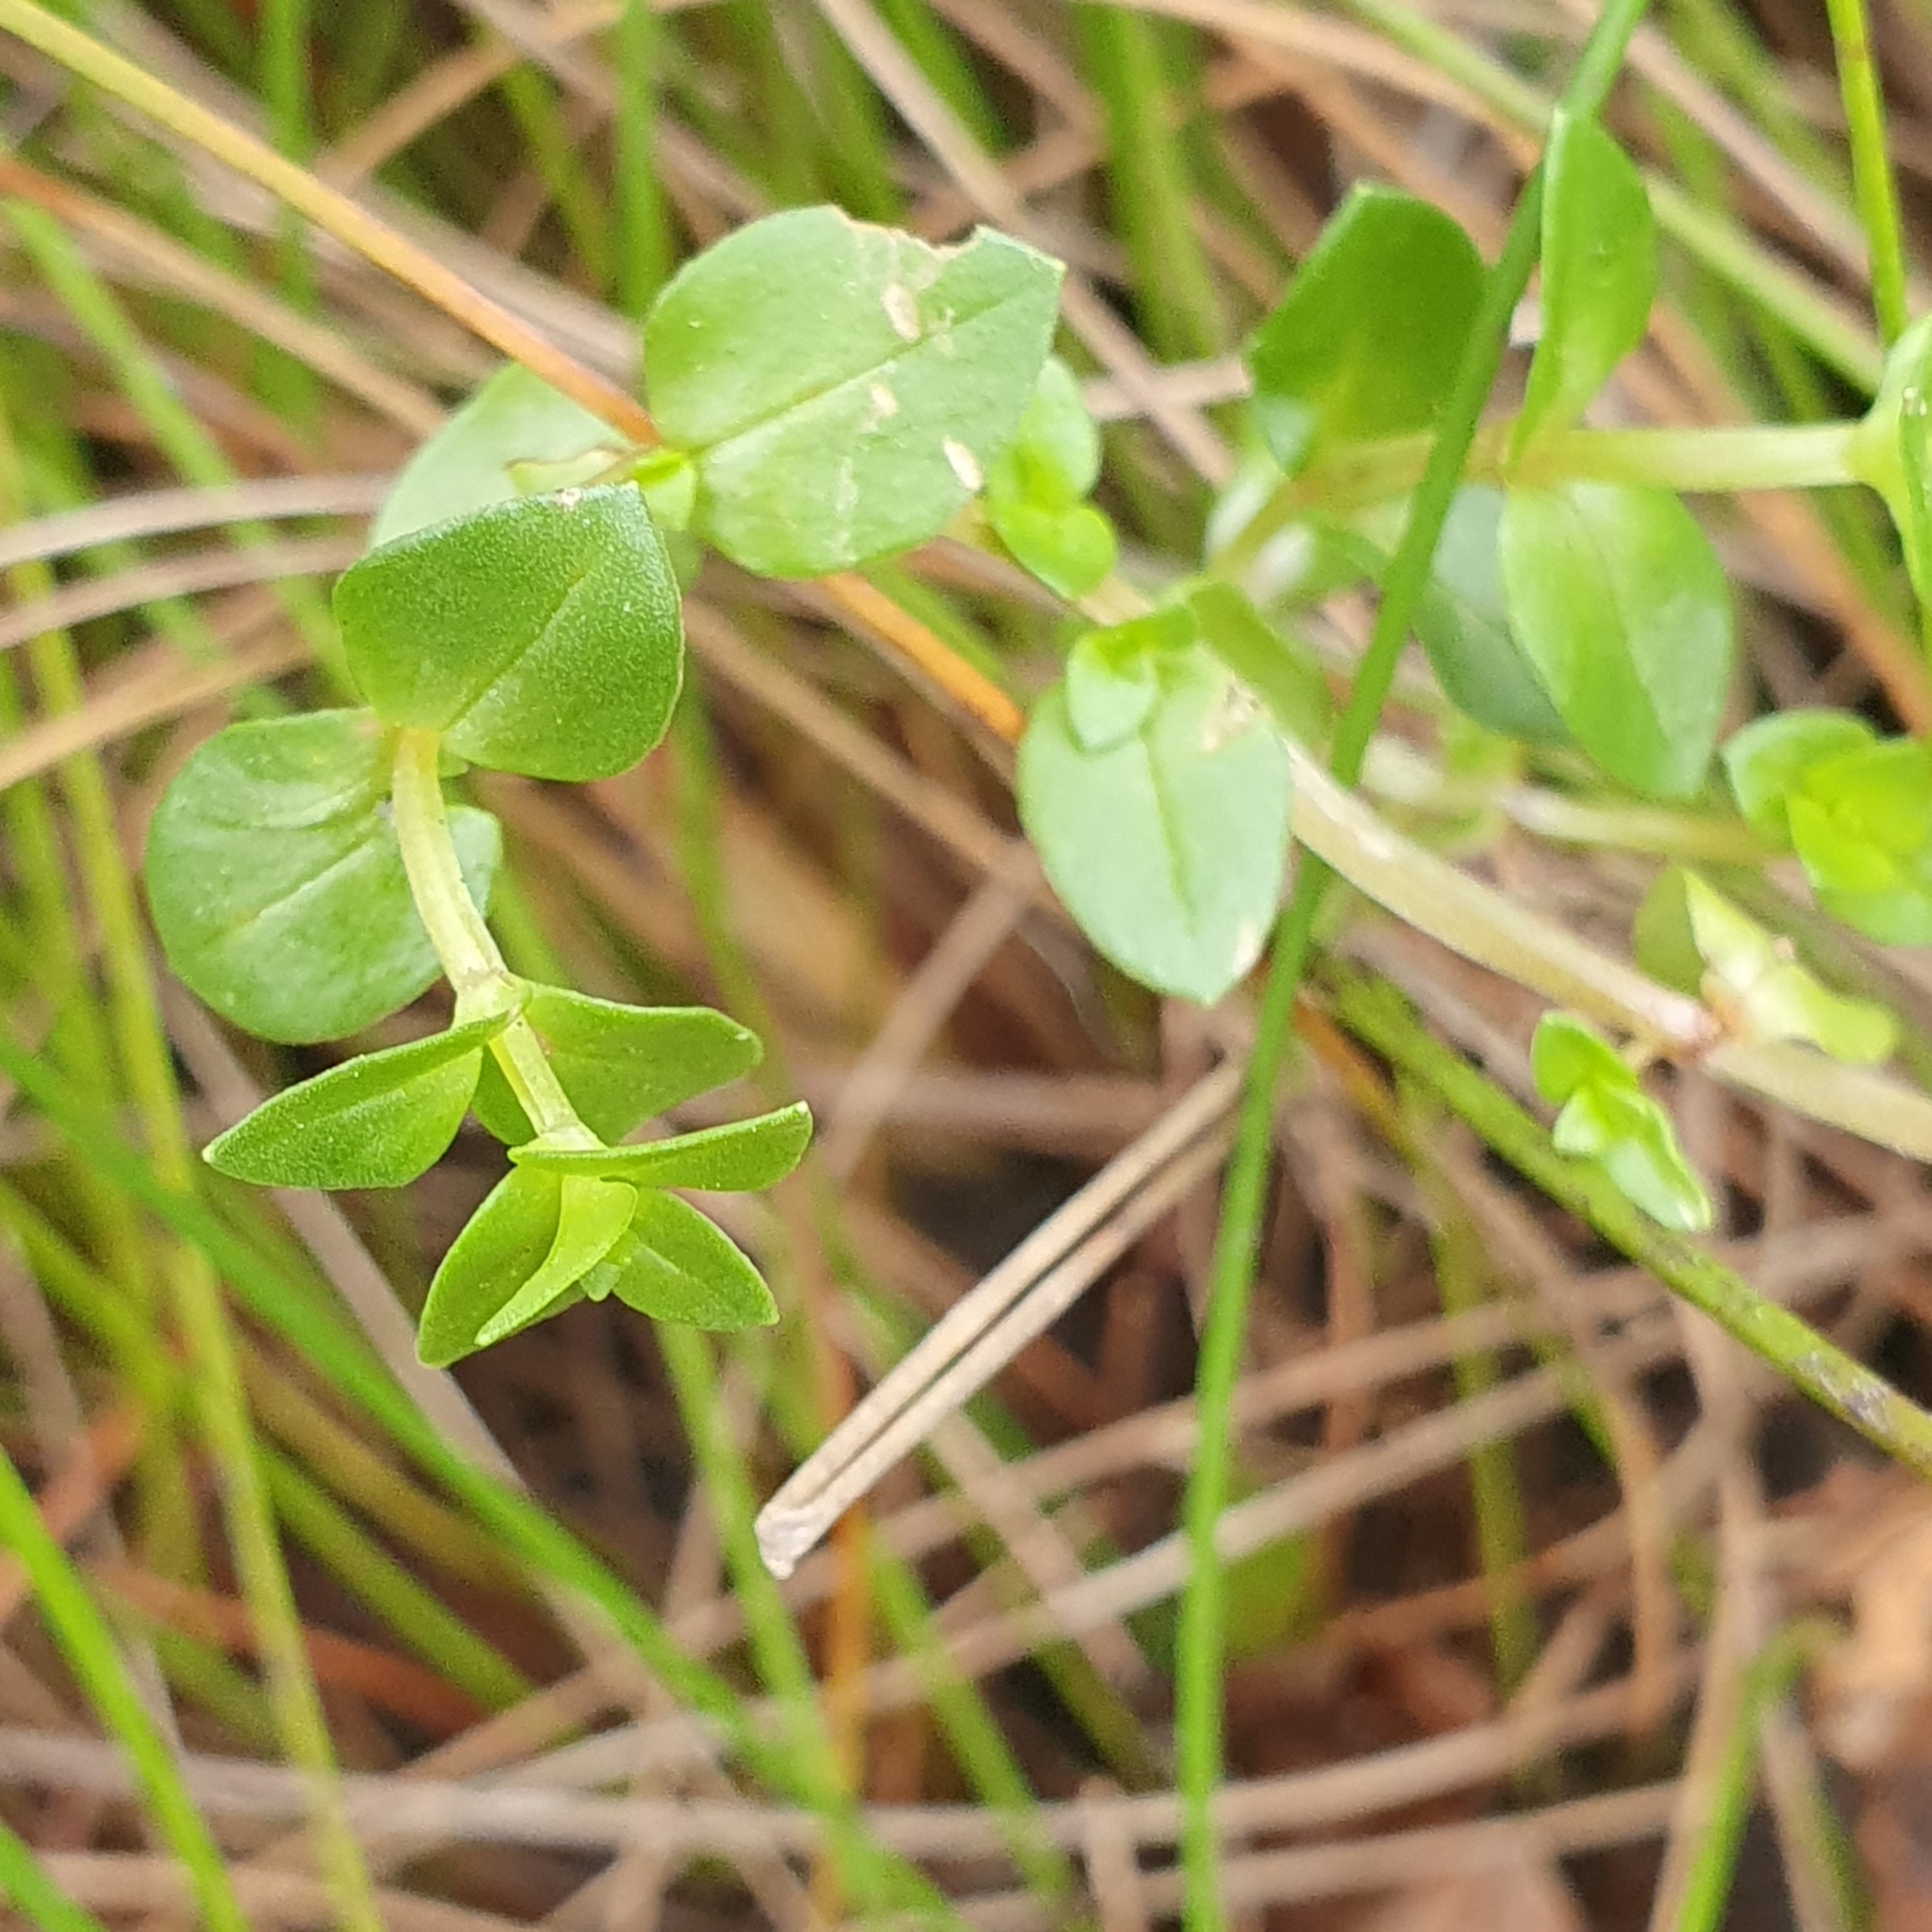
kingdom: Plantae
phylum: Tracheophyta
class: Magnoliopsida
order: Ericales
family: Primulaceae
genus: Lysimachia
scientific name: Lysimachia arvensis
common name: Scarlet pimpernel
